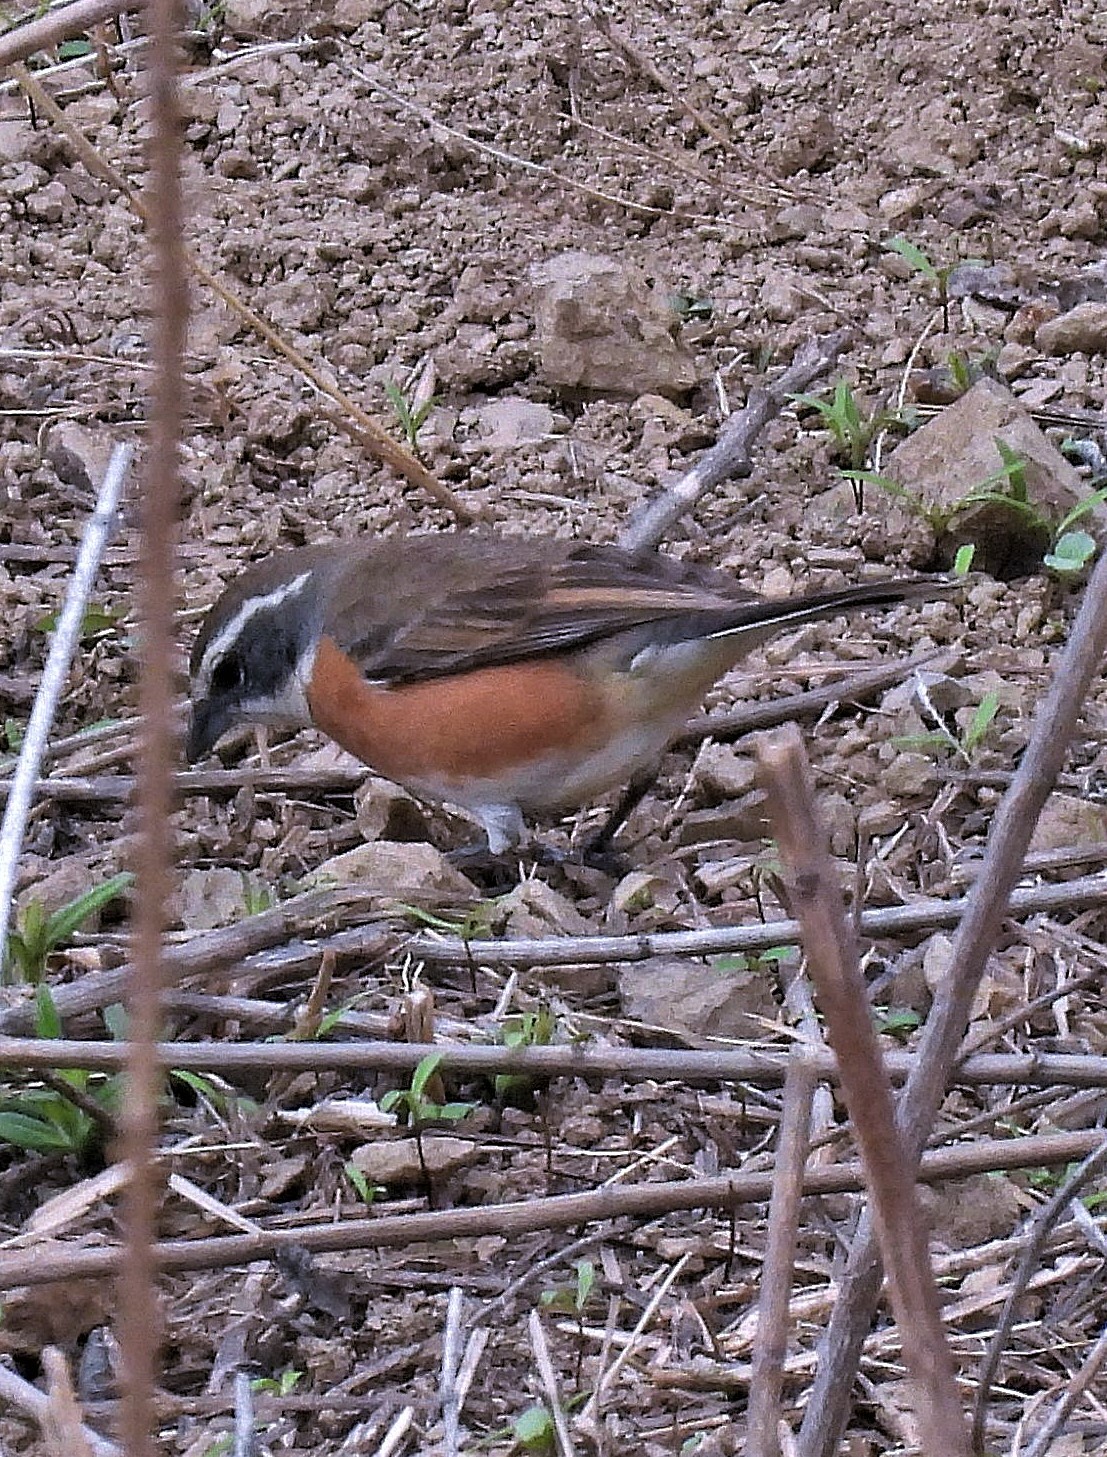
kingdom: Animalia
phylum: Chordata
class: Aves
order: Passeriformes
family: Thraupidae
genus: Poospiza
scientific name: Poospiza boliviana
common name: Bolivian warbling finch
